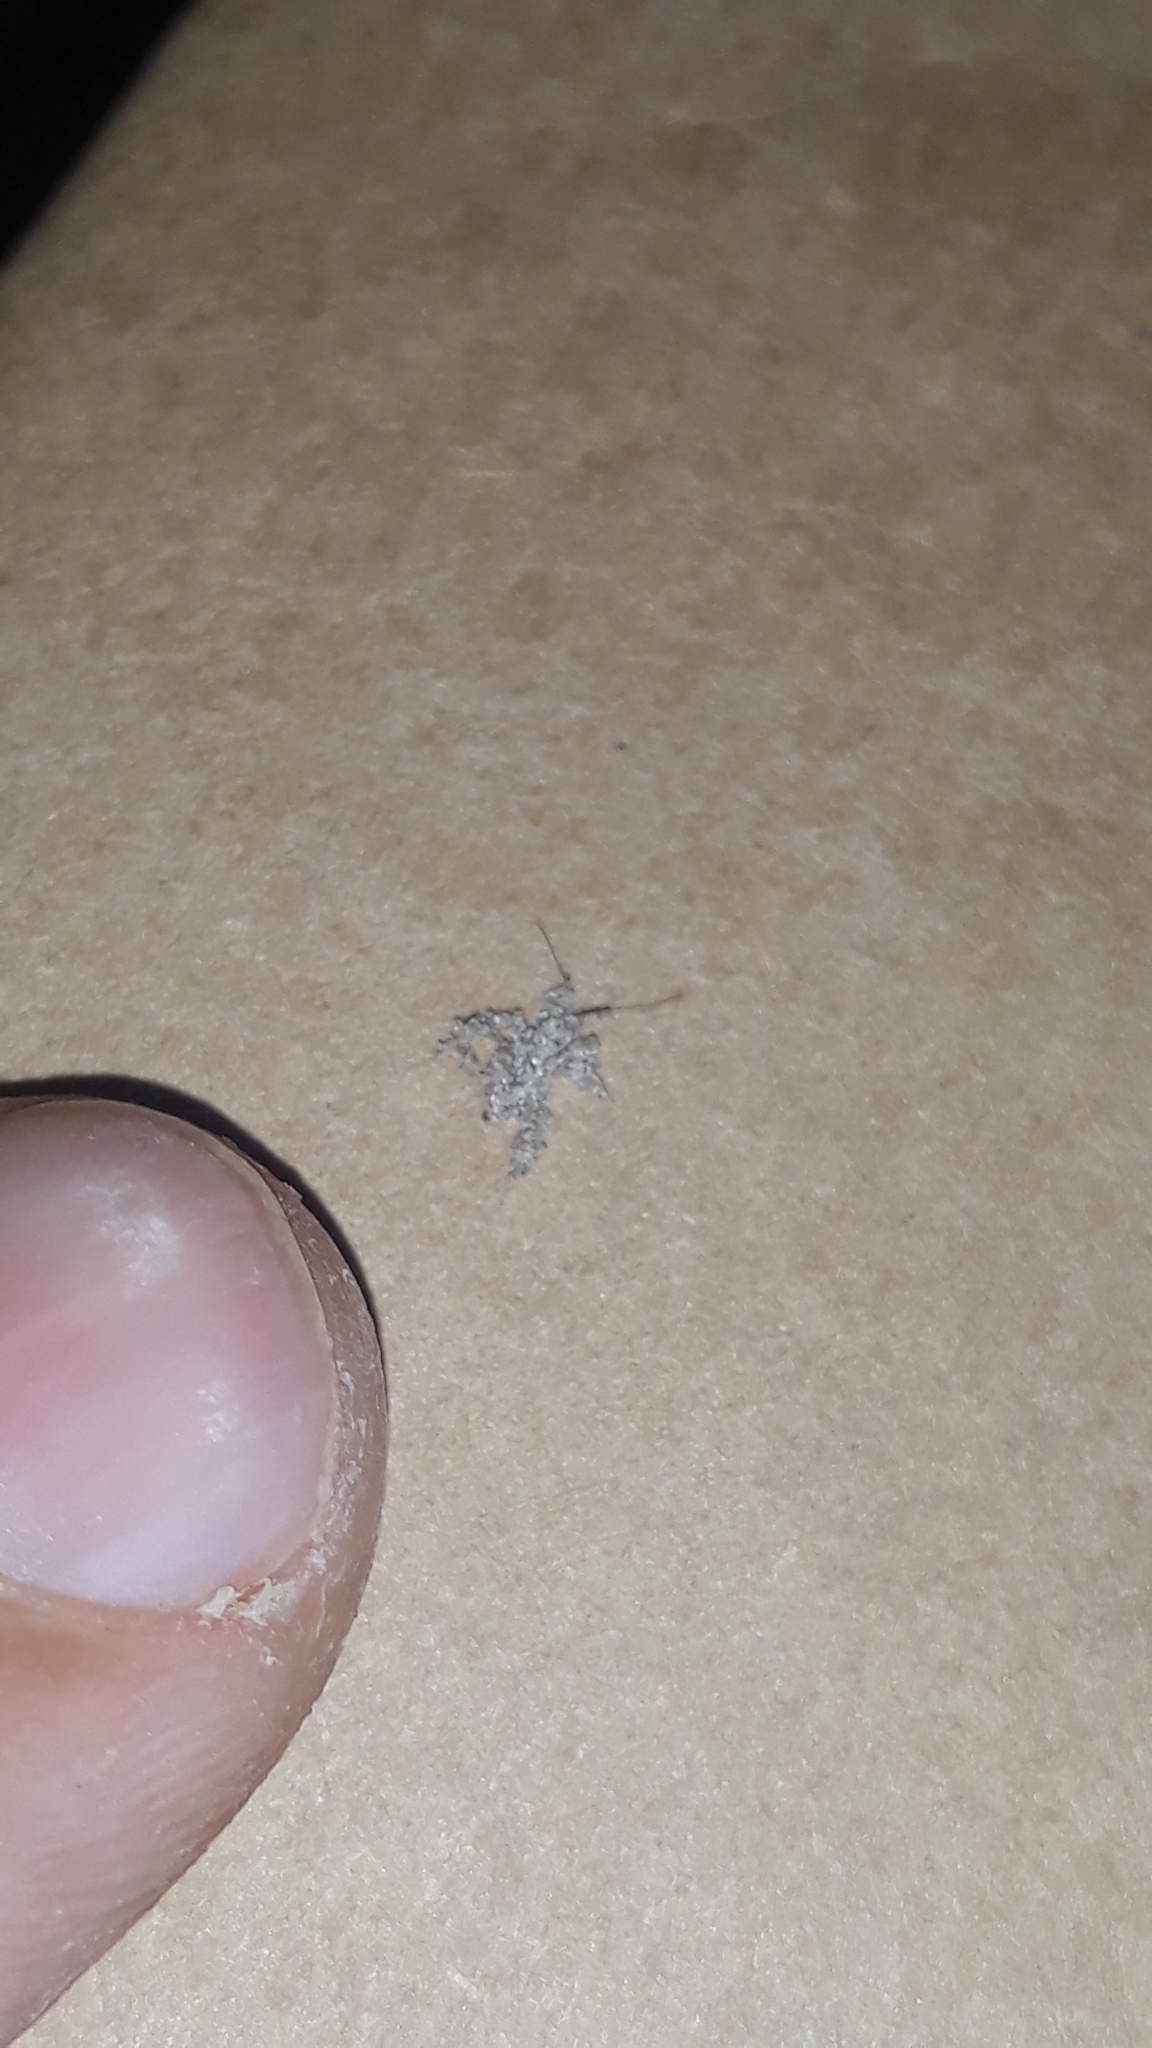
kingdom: Animalia
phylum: Arthropoda
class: Insecta
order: Hemiptera
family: Reduviidae
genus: Reduvius
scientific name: Reduvius personatus
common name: Masked hunter
